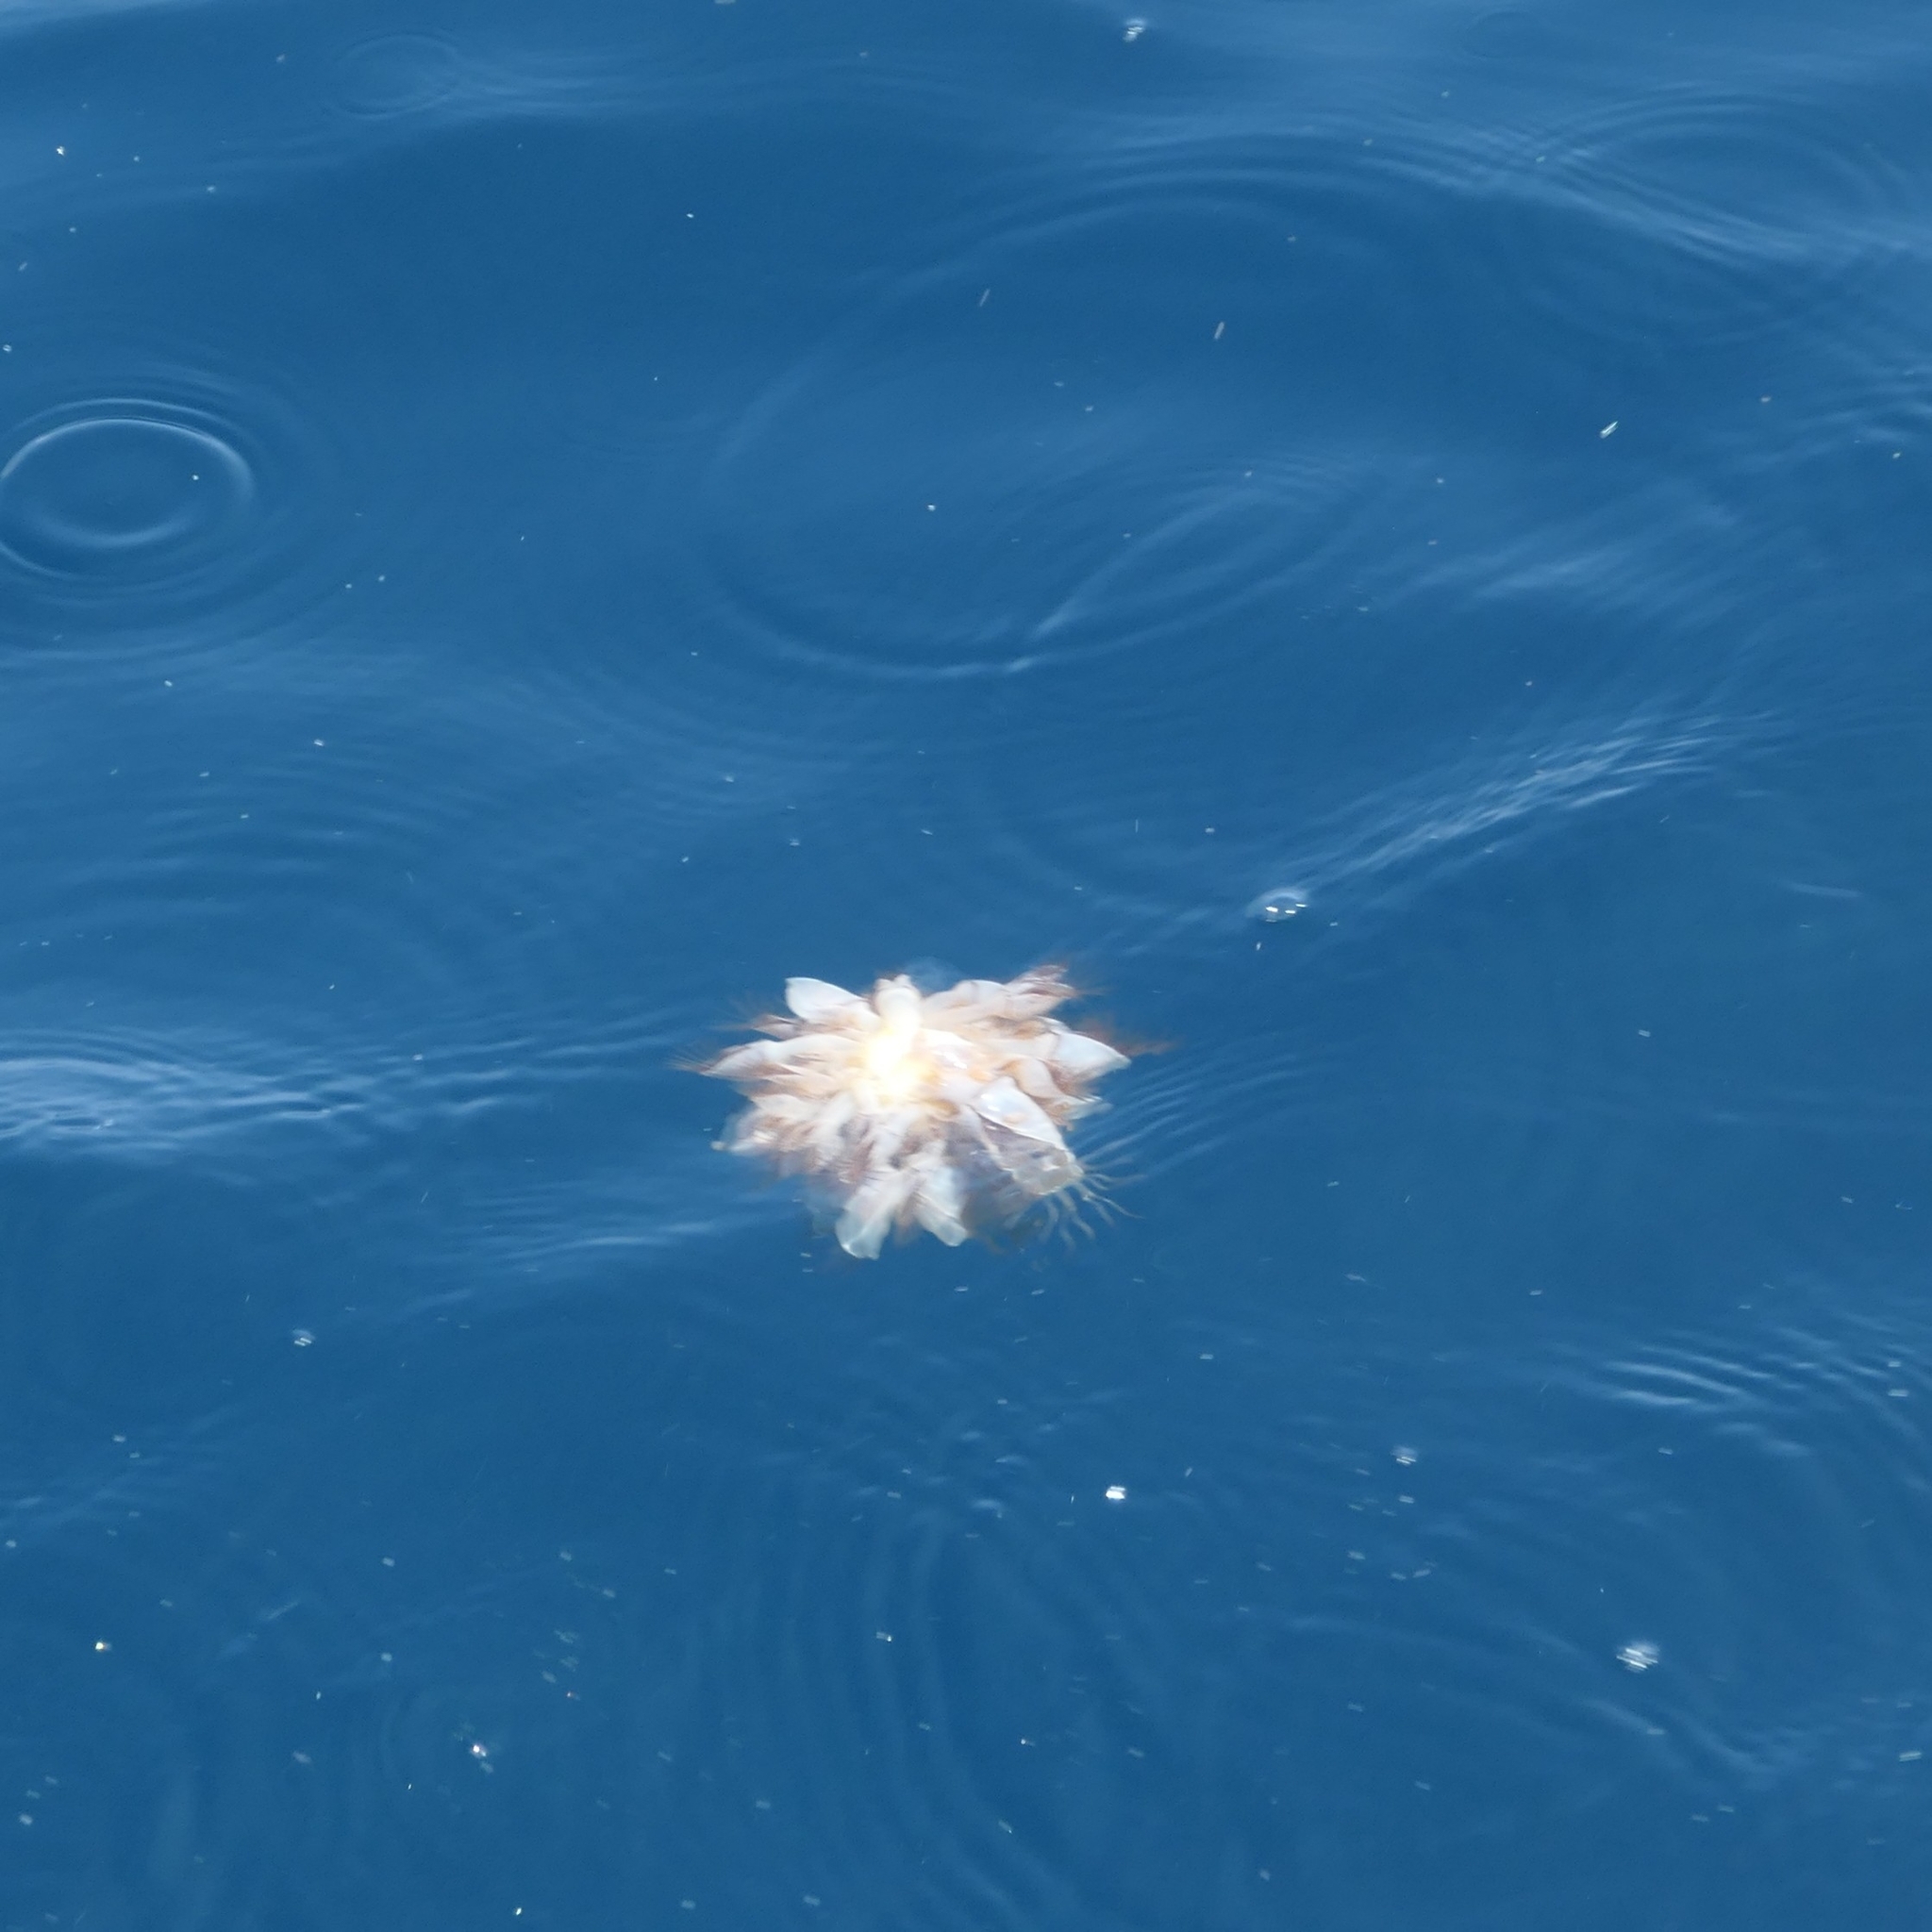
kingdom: Animalia
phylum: Arthropoda
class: Maxillopoda
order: Pedunculata
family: Lepadidae
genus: Lepas
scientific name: Lepas anatifera
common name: Common goose barnacle
